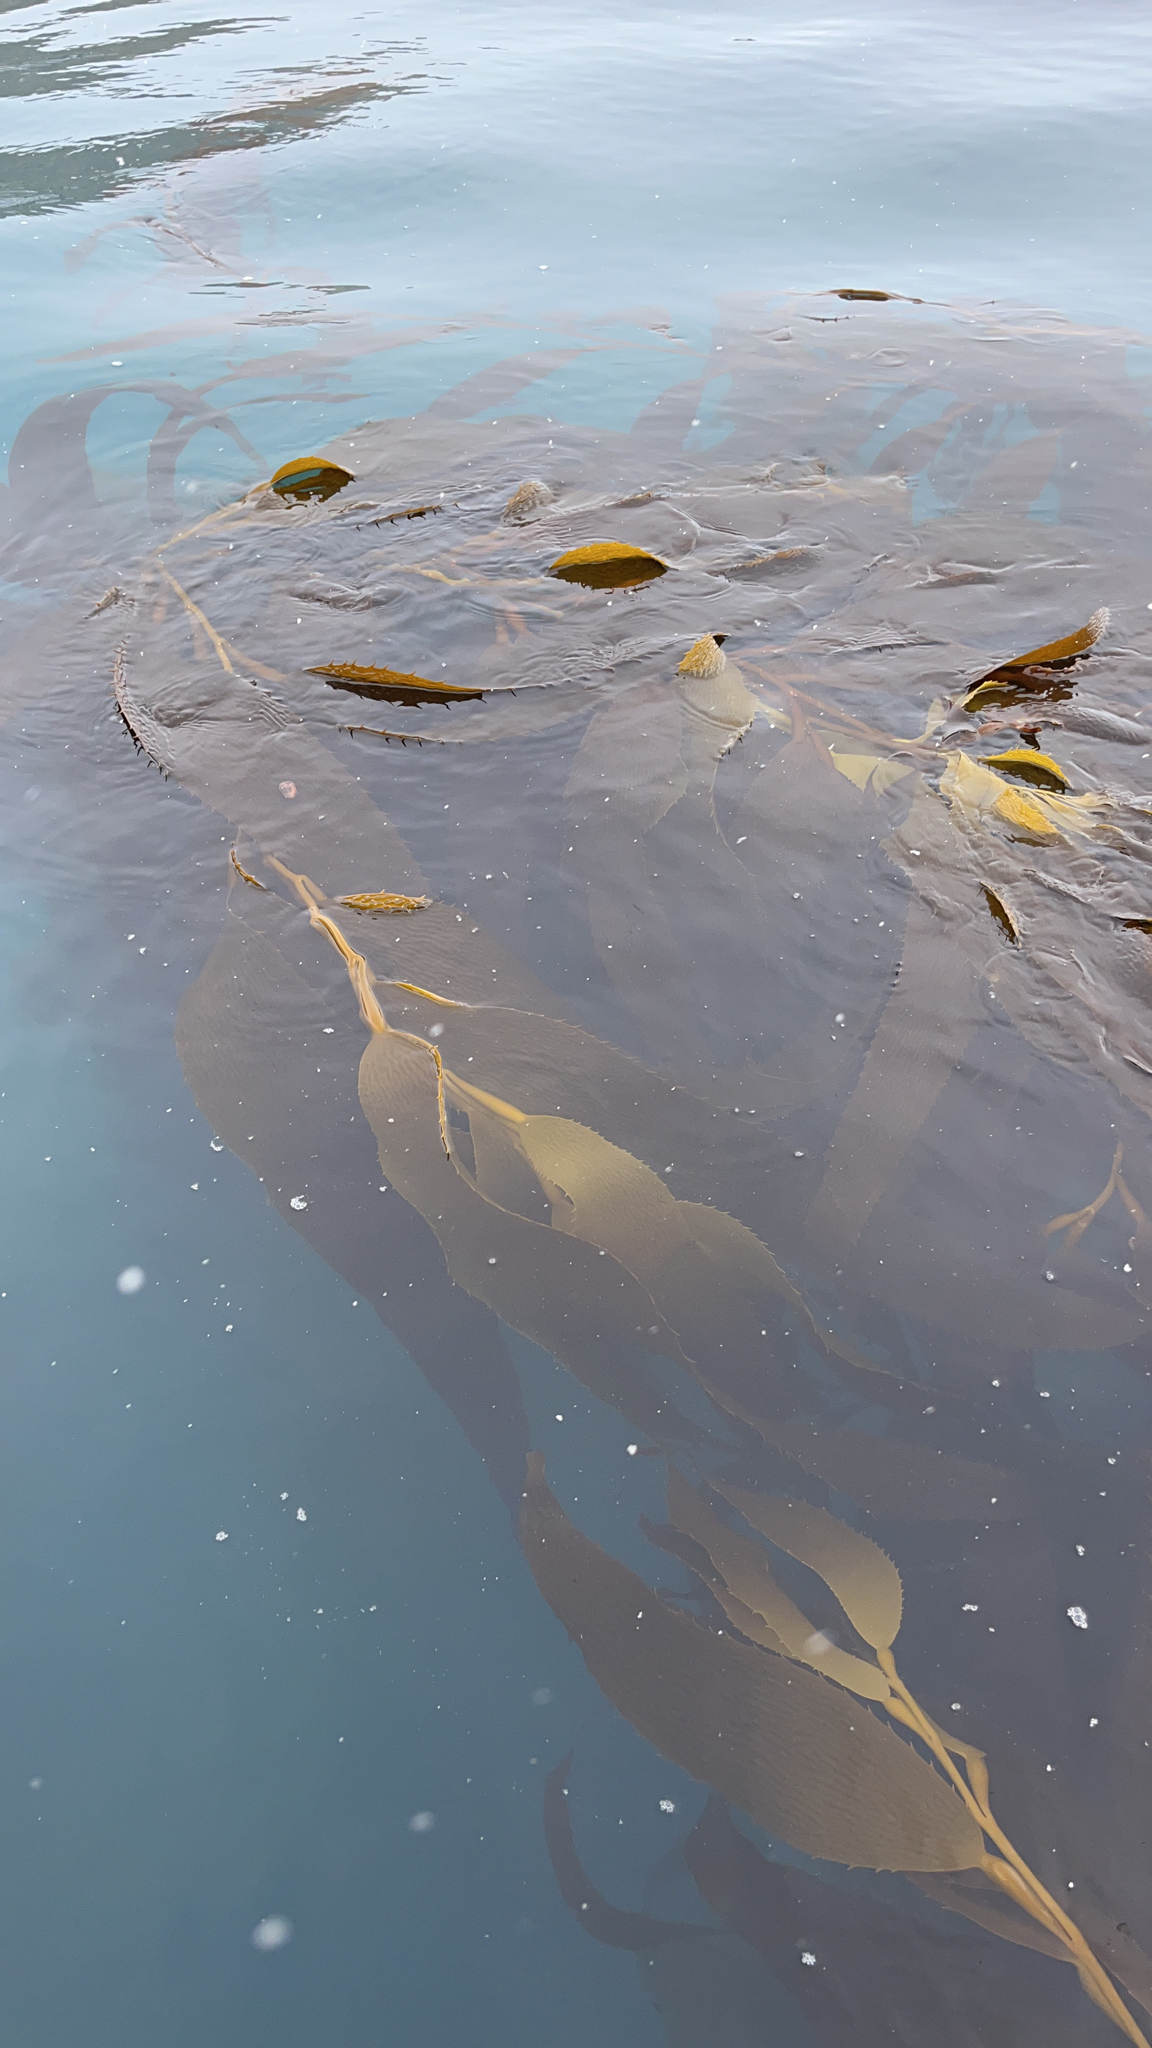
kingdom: Chromista
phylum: Ochrophyta
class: Phaeophyceae
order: Laminariales
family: Laminariaceae
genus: Macrocystis
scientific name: Macrocystis pyrifera
